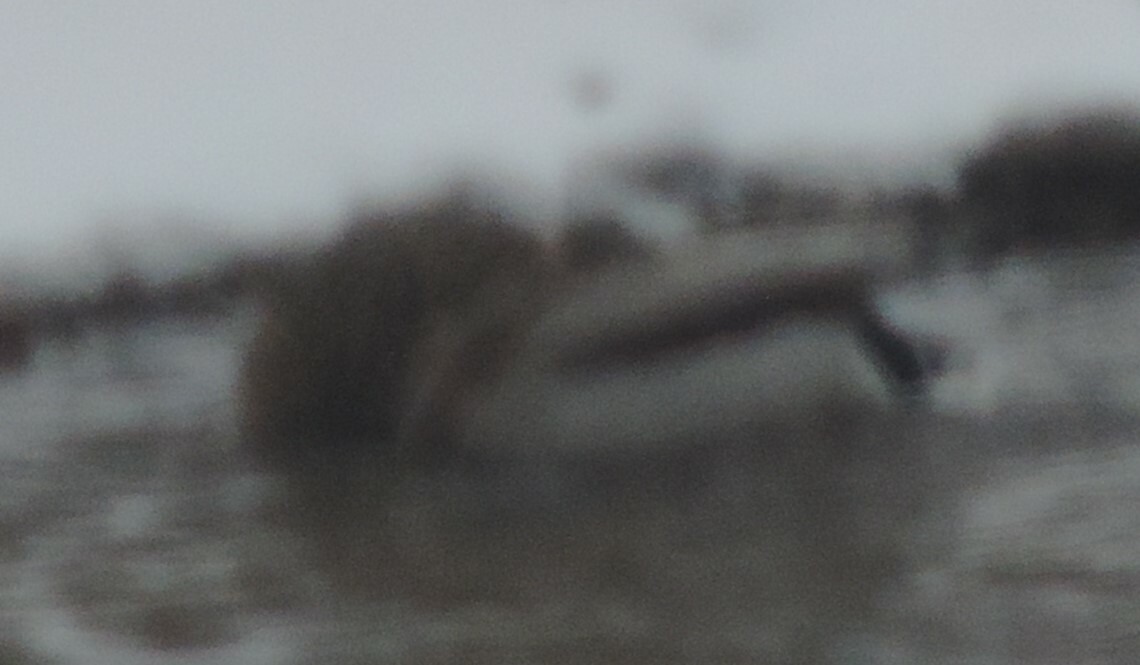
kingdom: Animalia
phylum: Chordata
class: Aves
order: Anseriformes
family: Anatidae
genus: Anas
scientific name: Anas platyrhynchos
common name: Mallard
